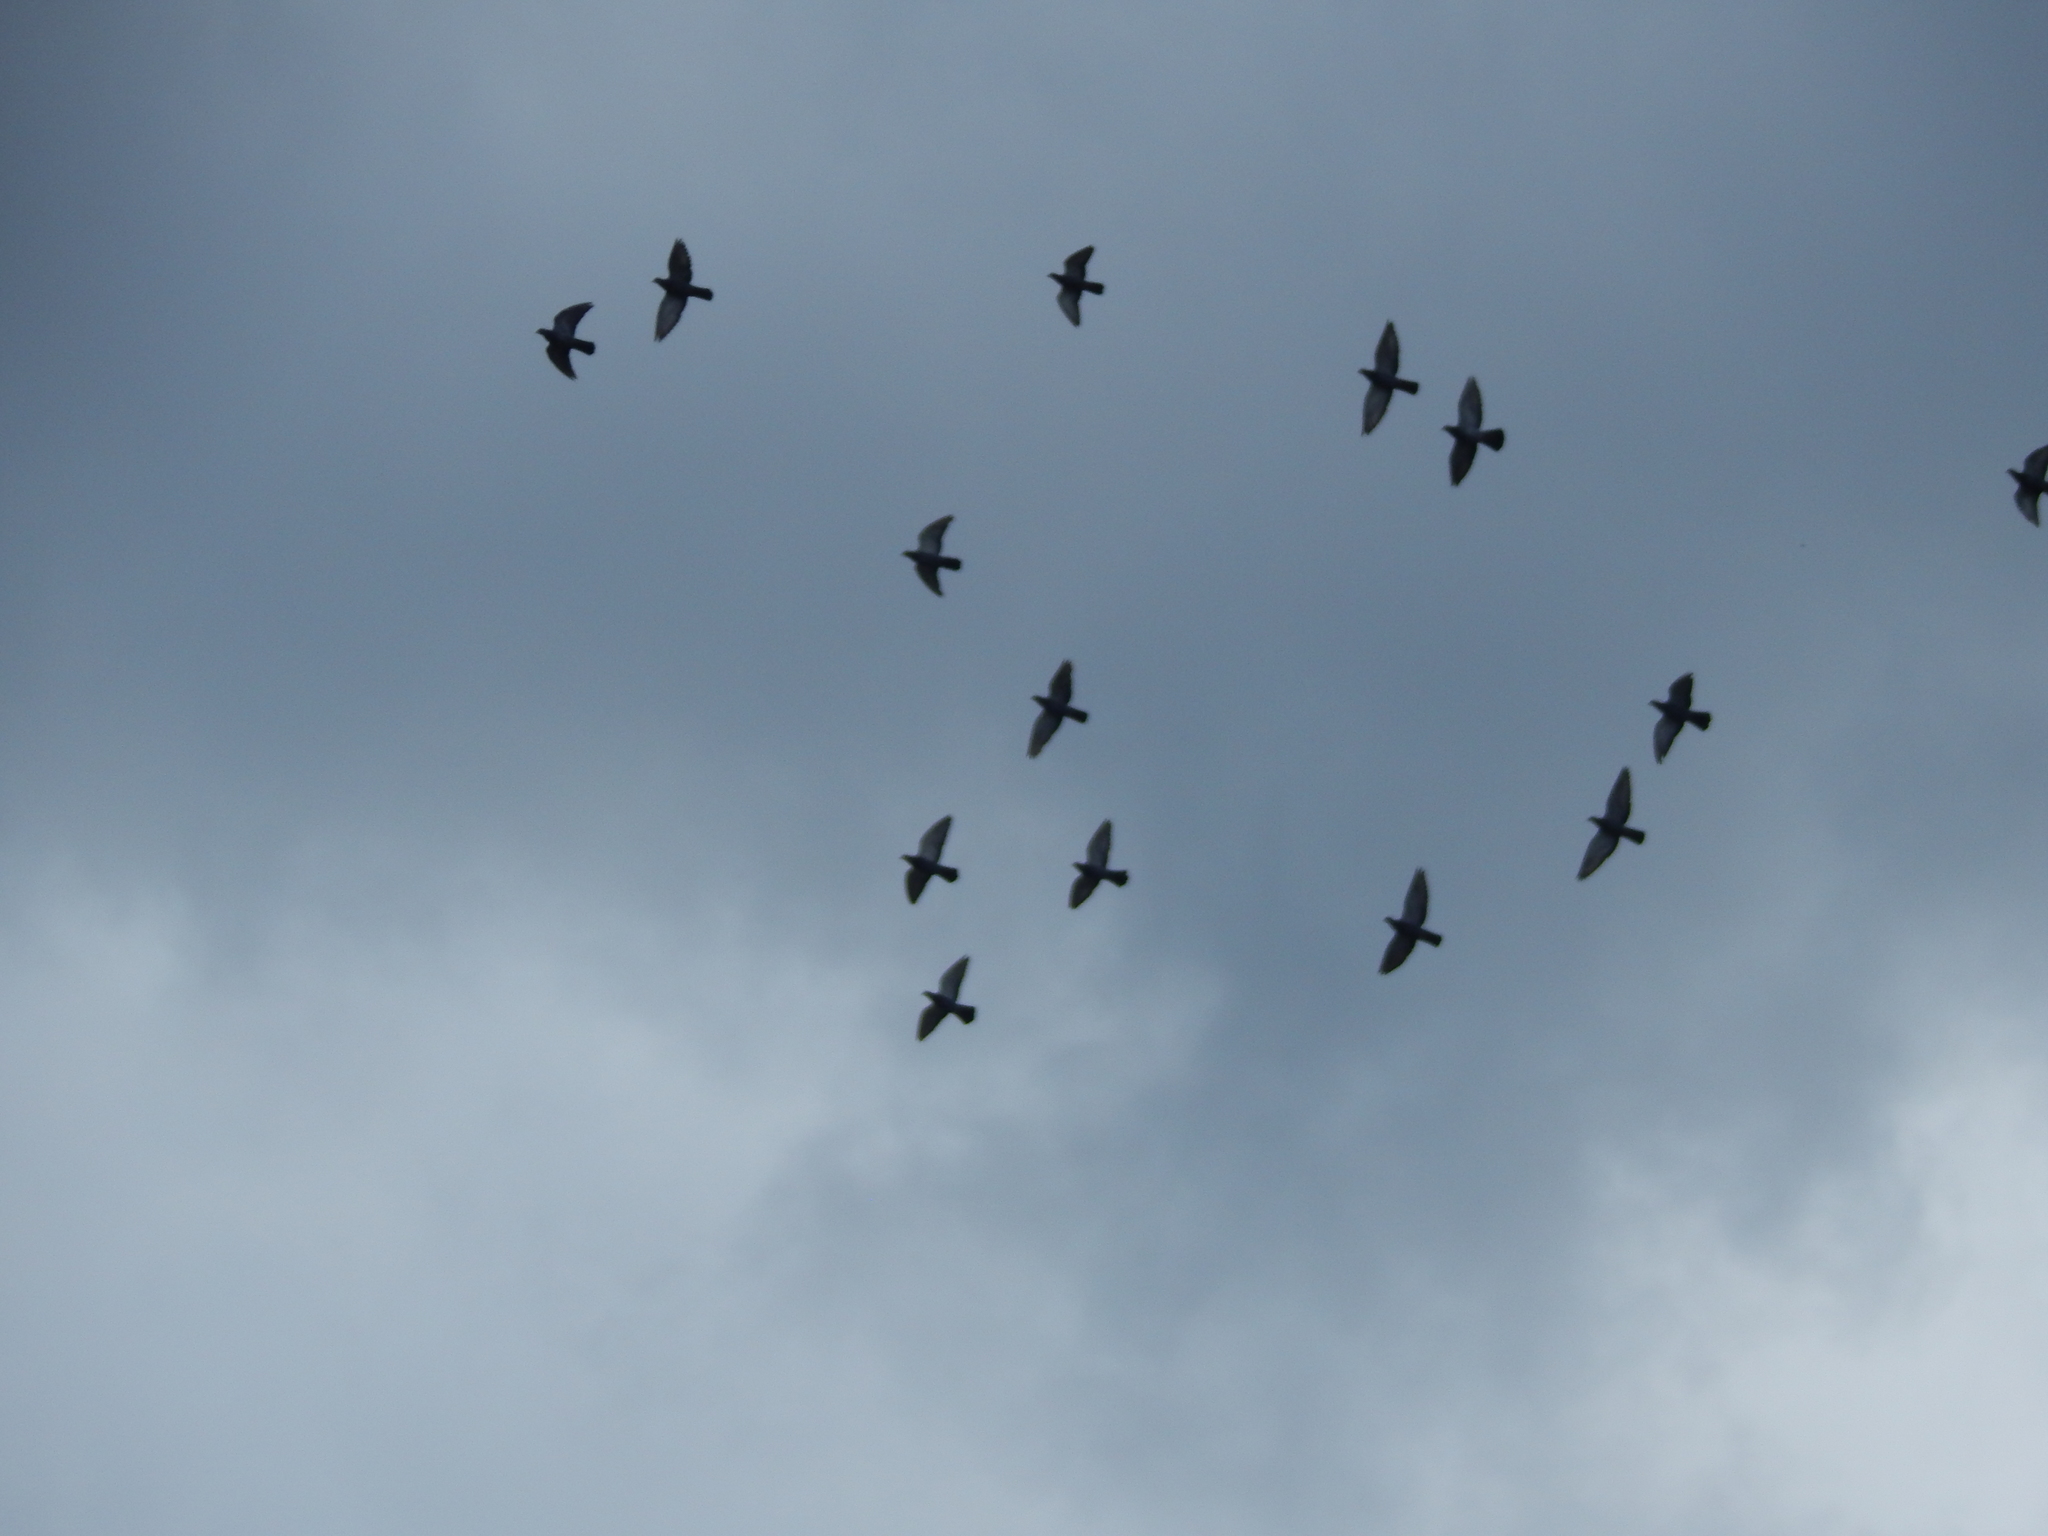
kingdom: Animalia
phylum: Chordata
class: Aves
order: Columbiformes
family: Columbidae
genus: Columba
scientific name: Columba livia
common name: Rock pigeon
